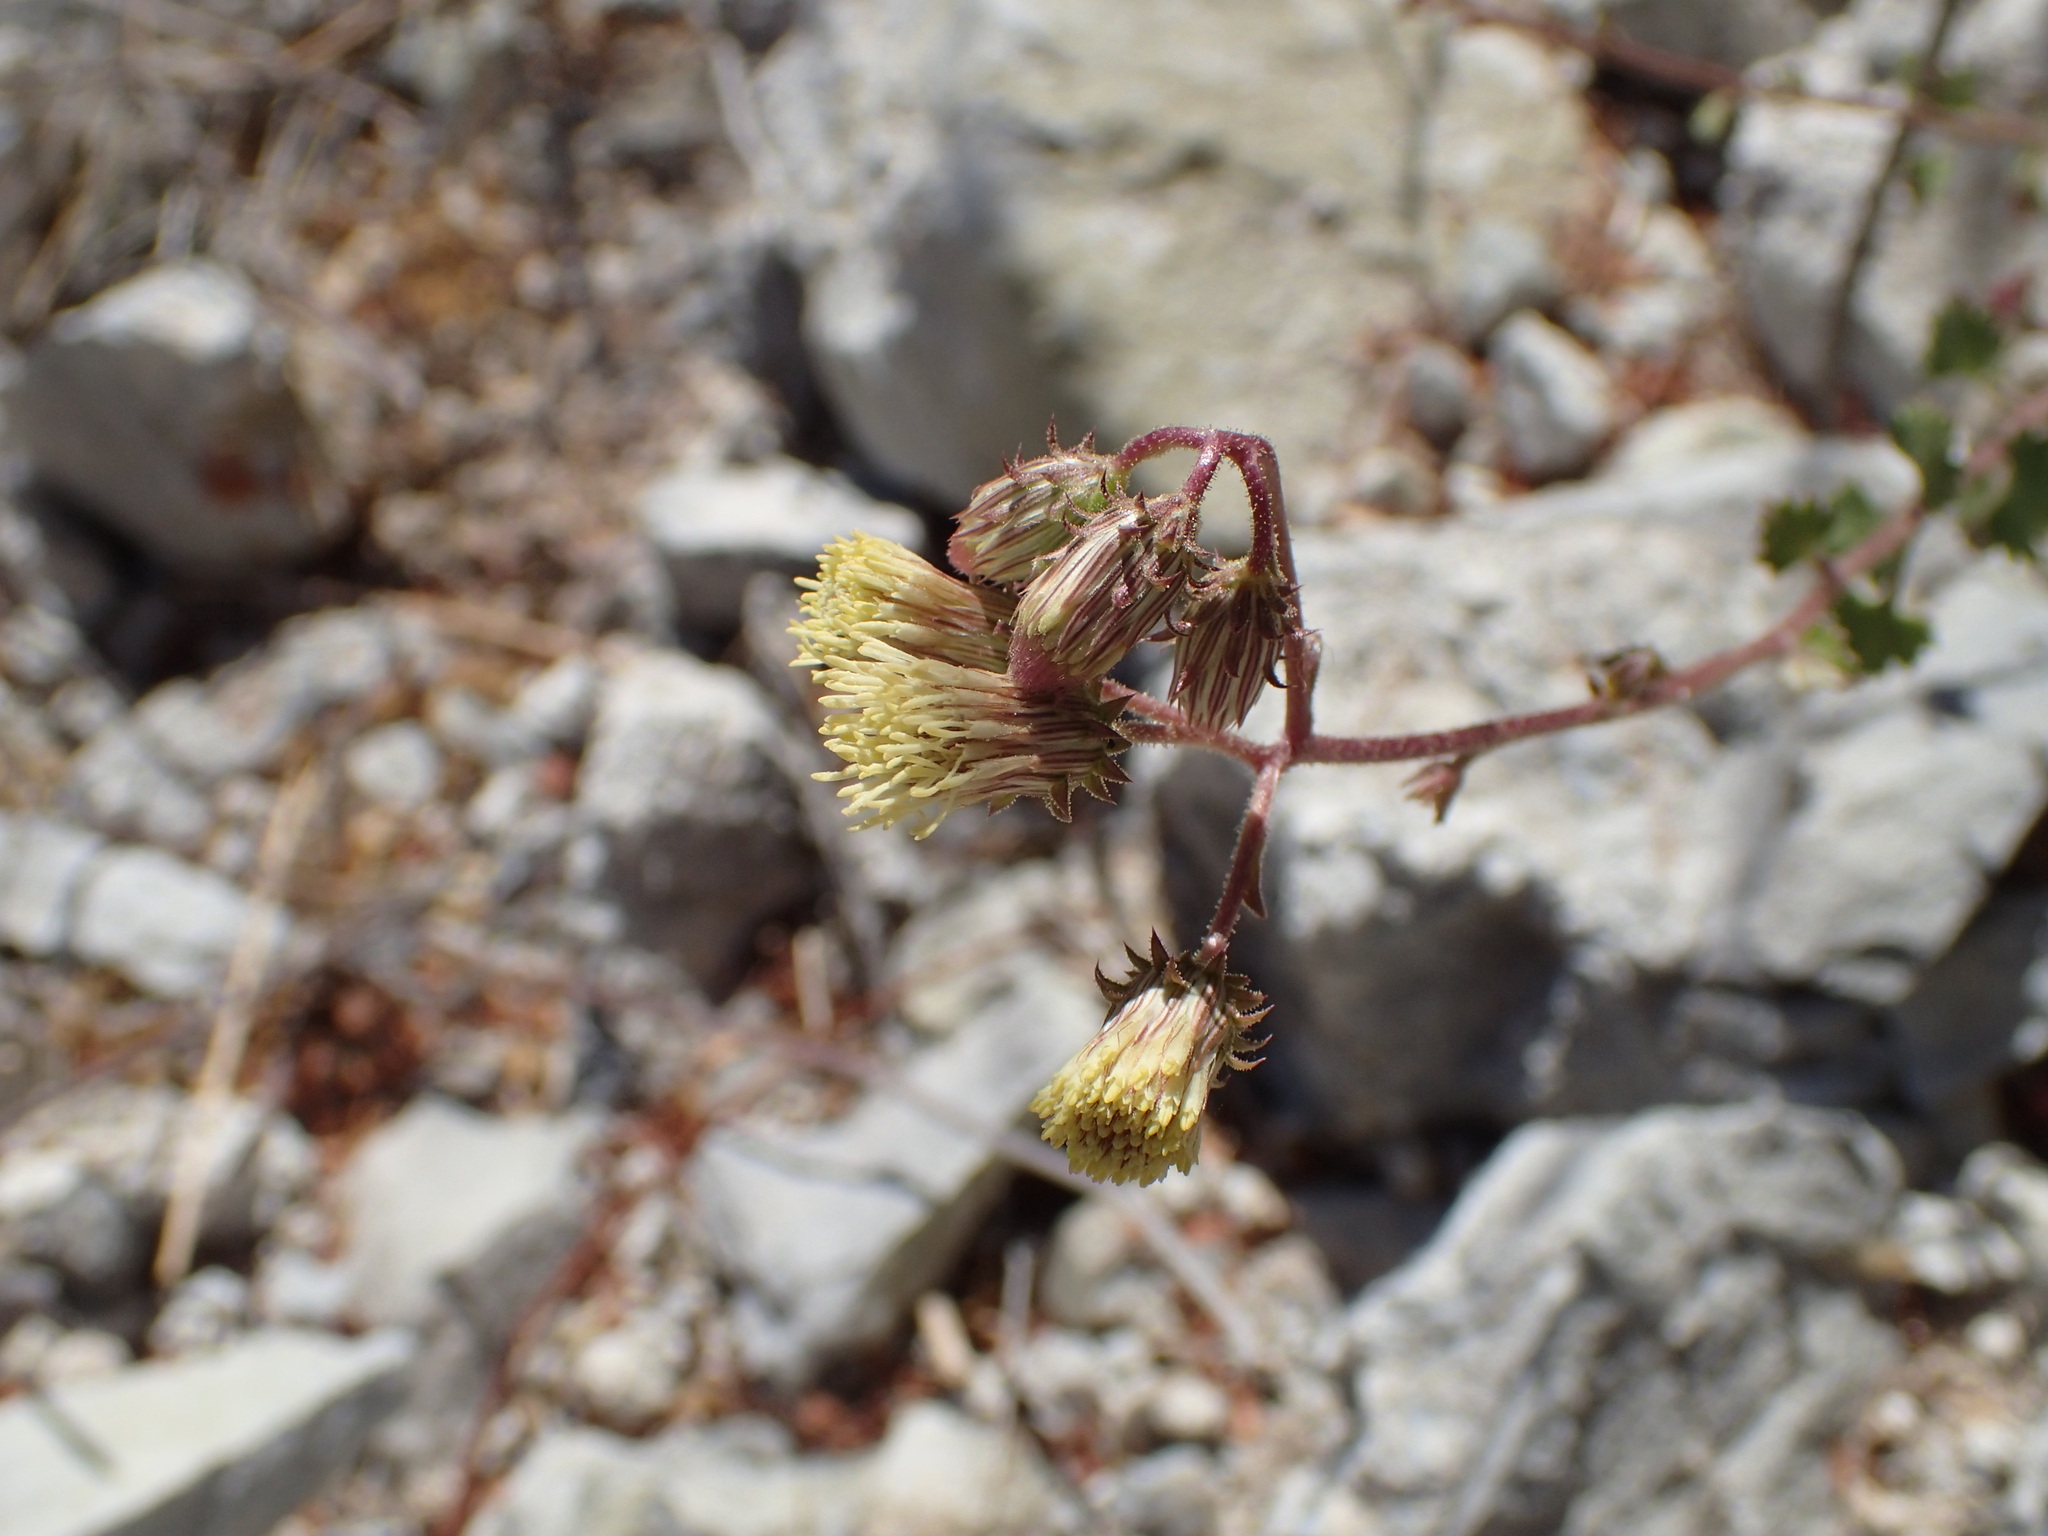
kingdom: Plantae
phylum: Tracheophyta
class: Magnoliopsida
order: Asterales
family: Asteraceae
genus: Pleurocoronis
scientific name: Pleurocoronis laphamioides
